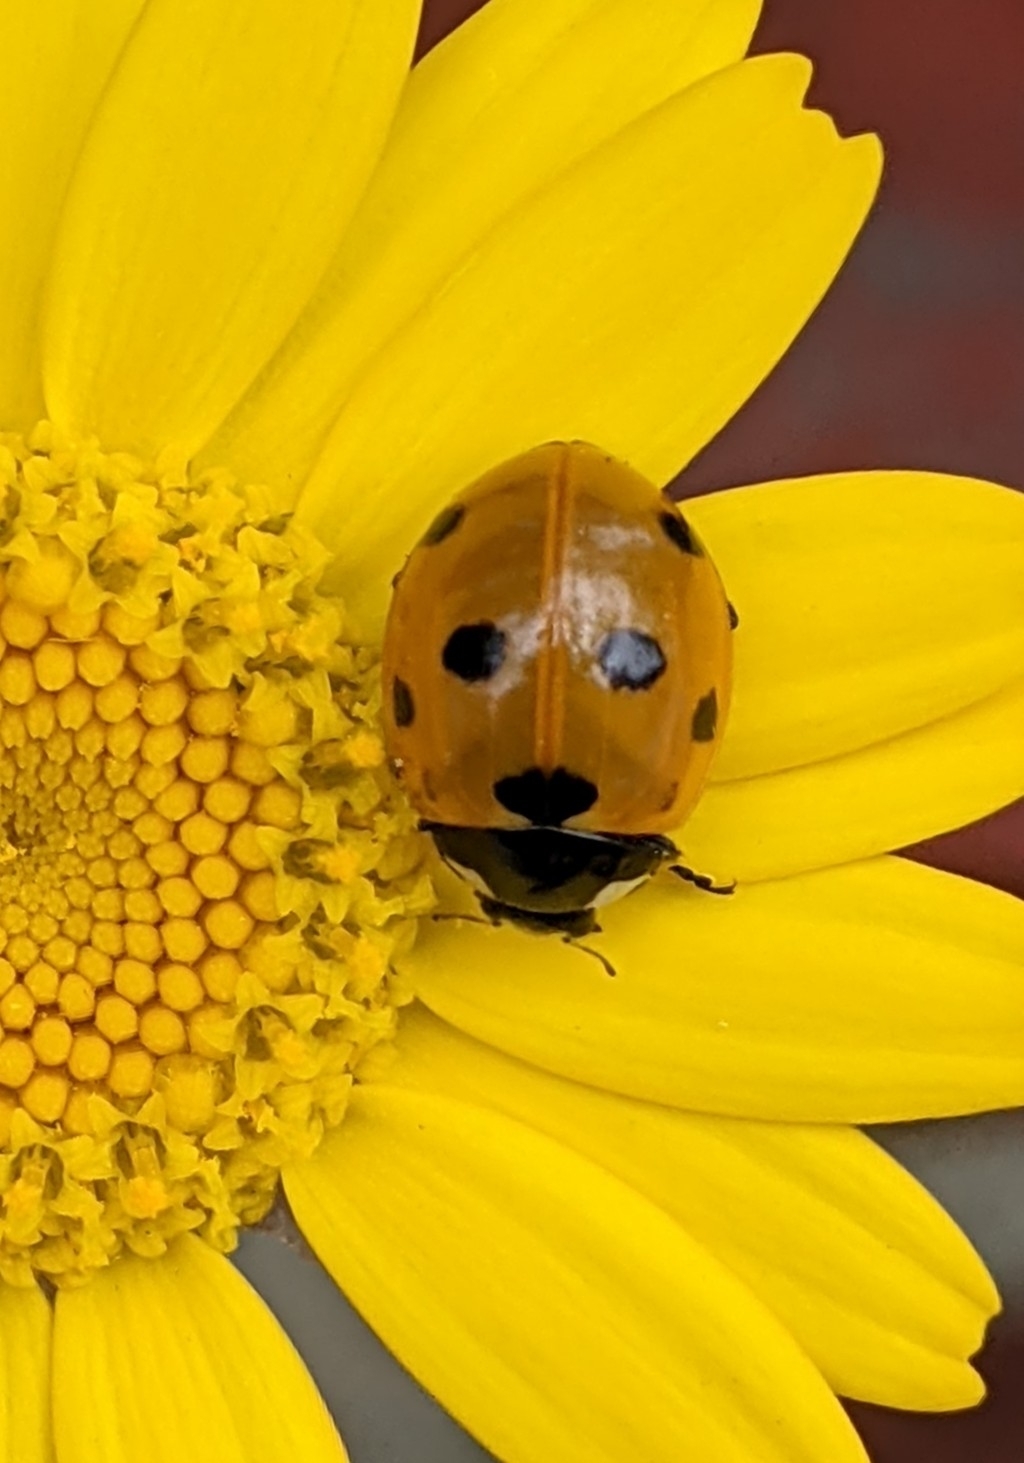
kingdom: Animalia
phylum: Arthropoda
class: Insecta
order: Coleoptera
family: Coccinellidae
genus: Coccinella
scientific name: Coccinella septempunctata
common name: Sevenspotted lady beetle
